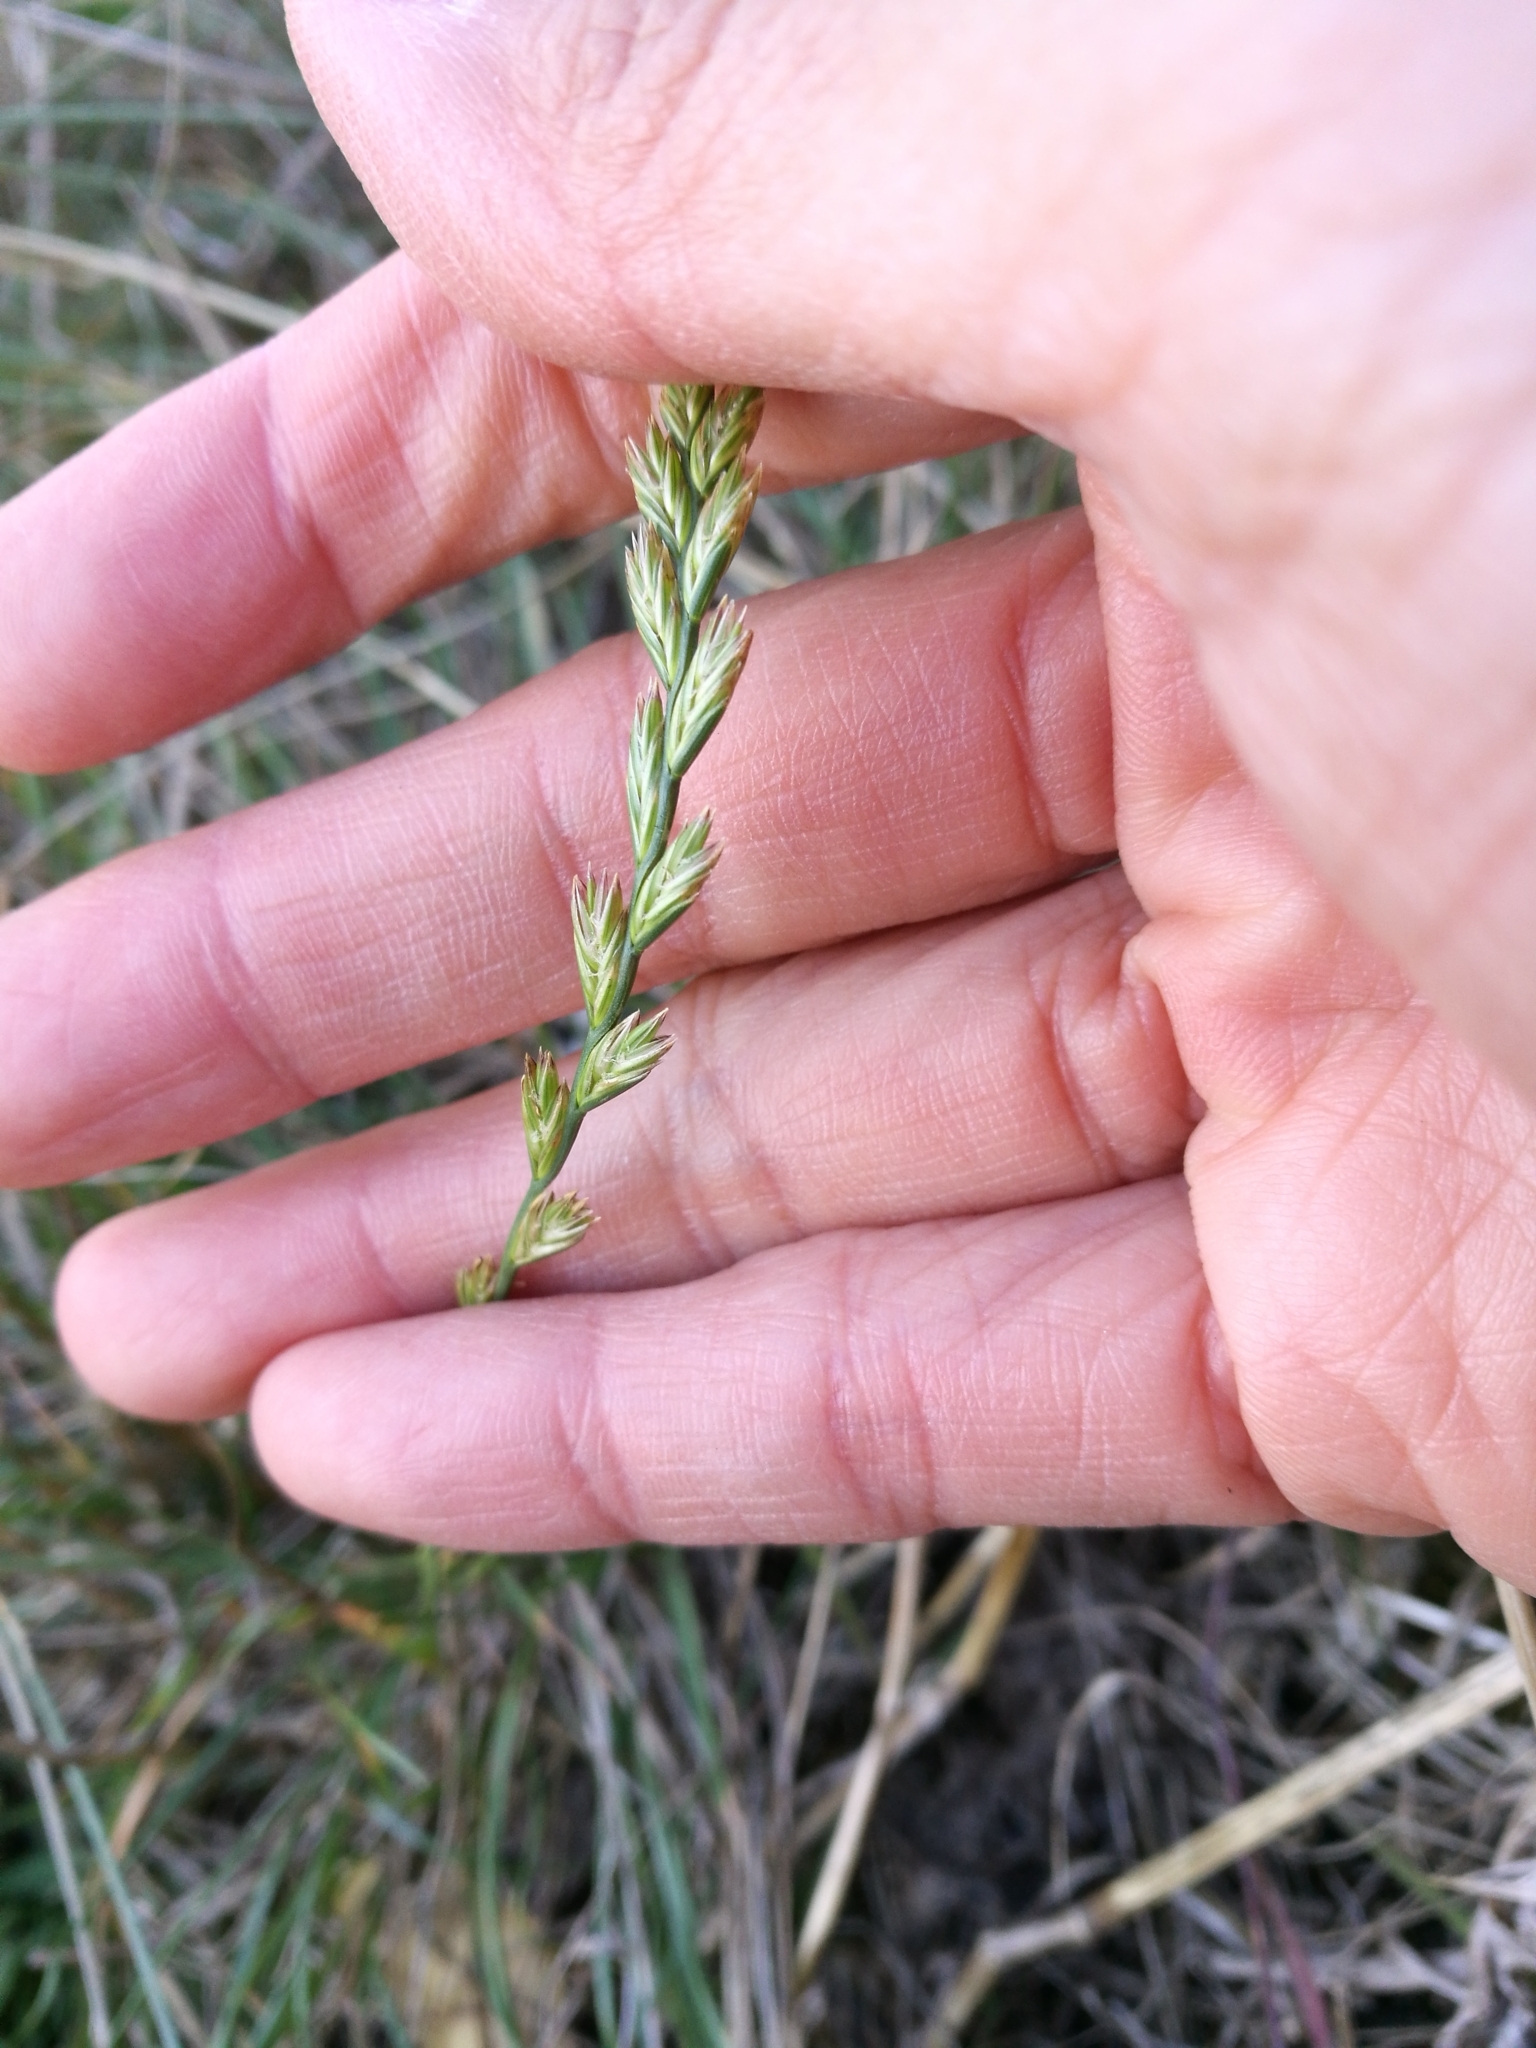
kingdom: Plantae
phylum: Tracheophyta
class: Liliopsida
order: Poales
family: Poaceae
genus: Lolium
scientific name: Lolium perenne
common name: Perennial ryegrass
